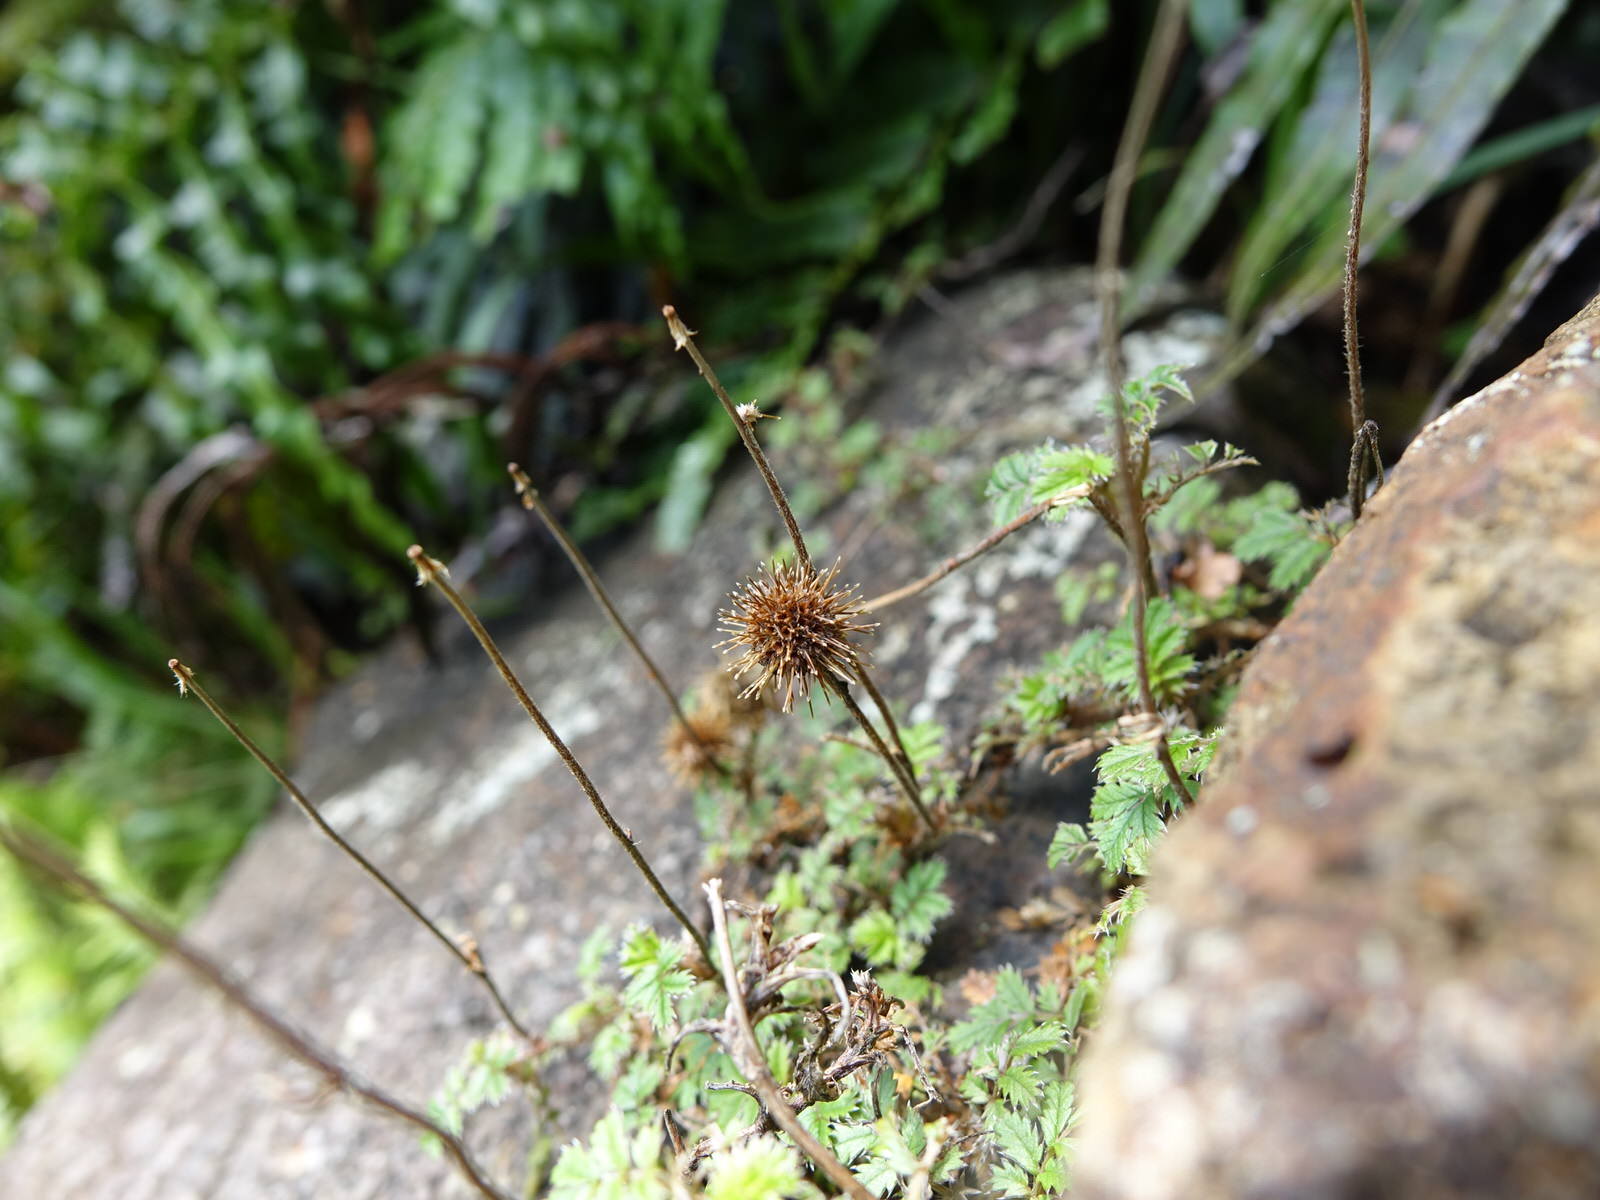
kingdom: Plantae
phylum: Tracheophyta
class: Magnoliopsida
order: Rosales
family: Rosaceae
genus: Acaena
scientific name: Acaena anserinifolia
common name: Bronze pirri-pirri-bur
